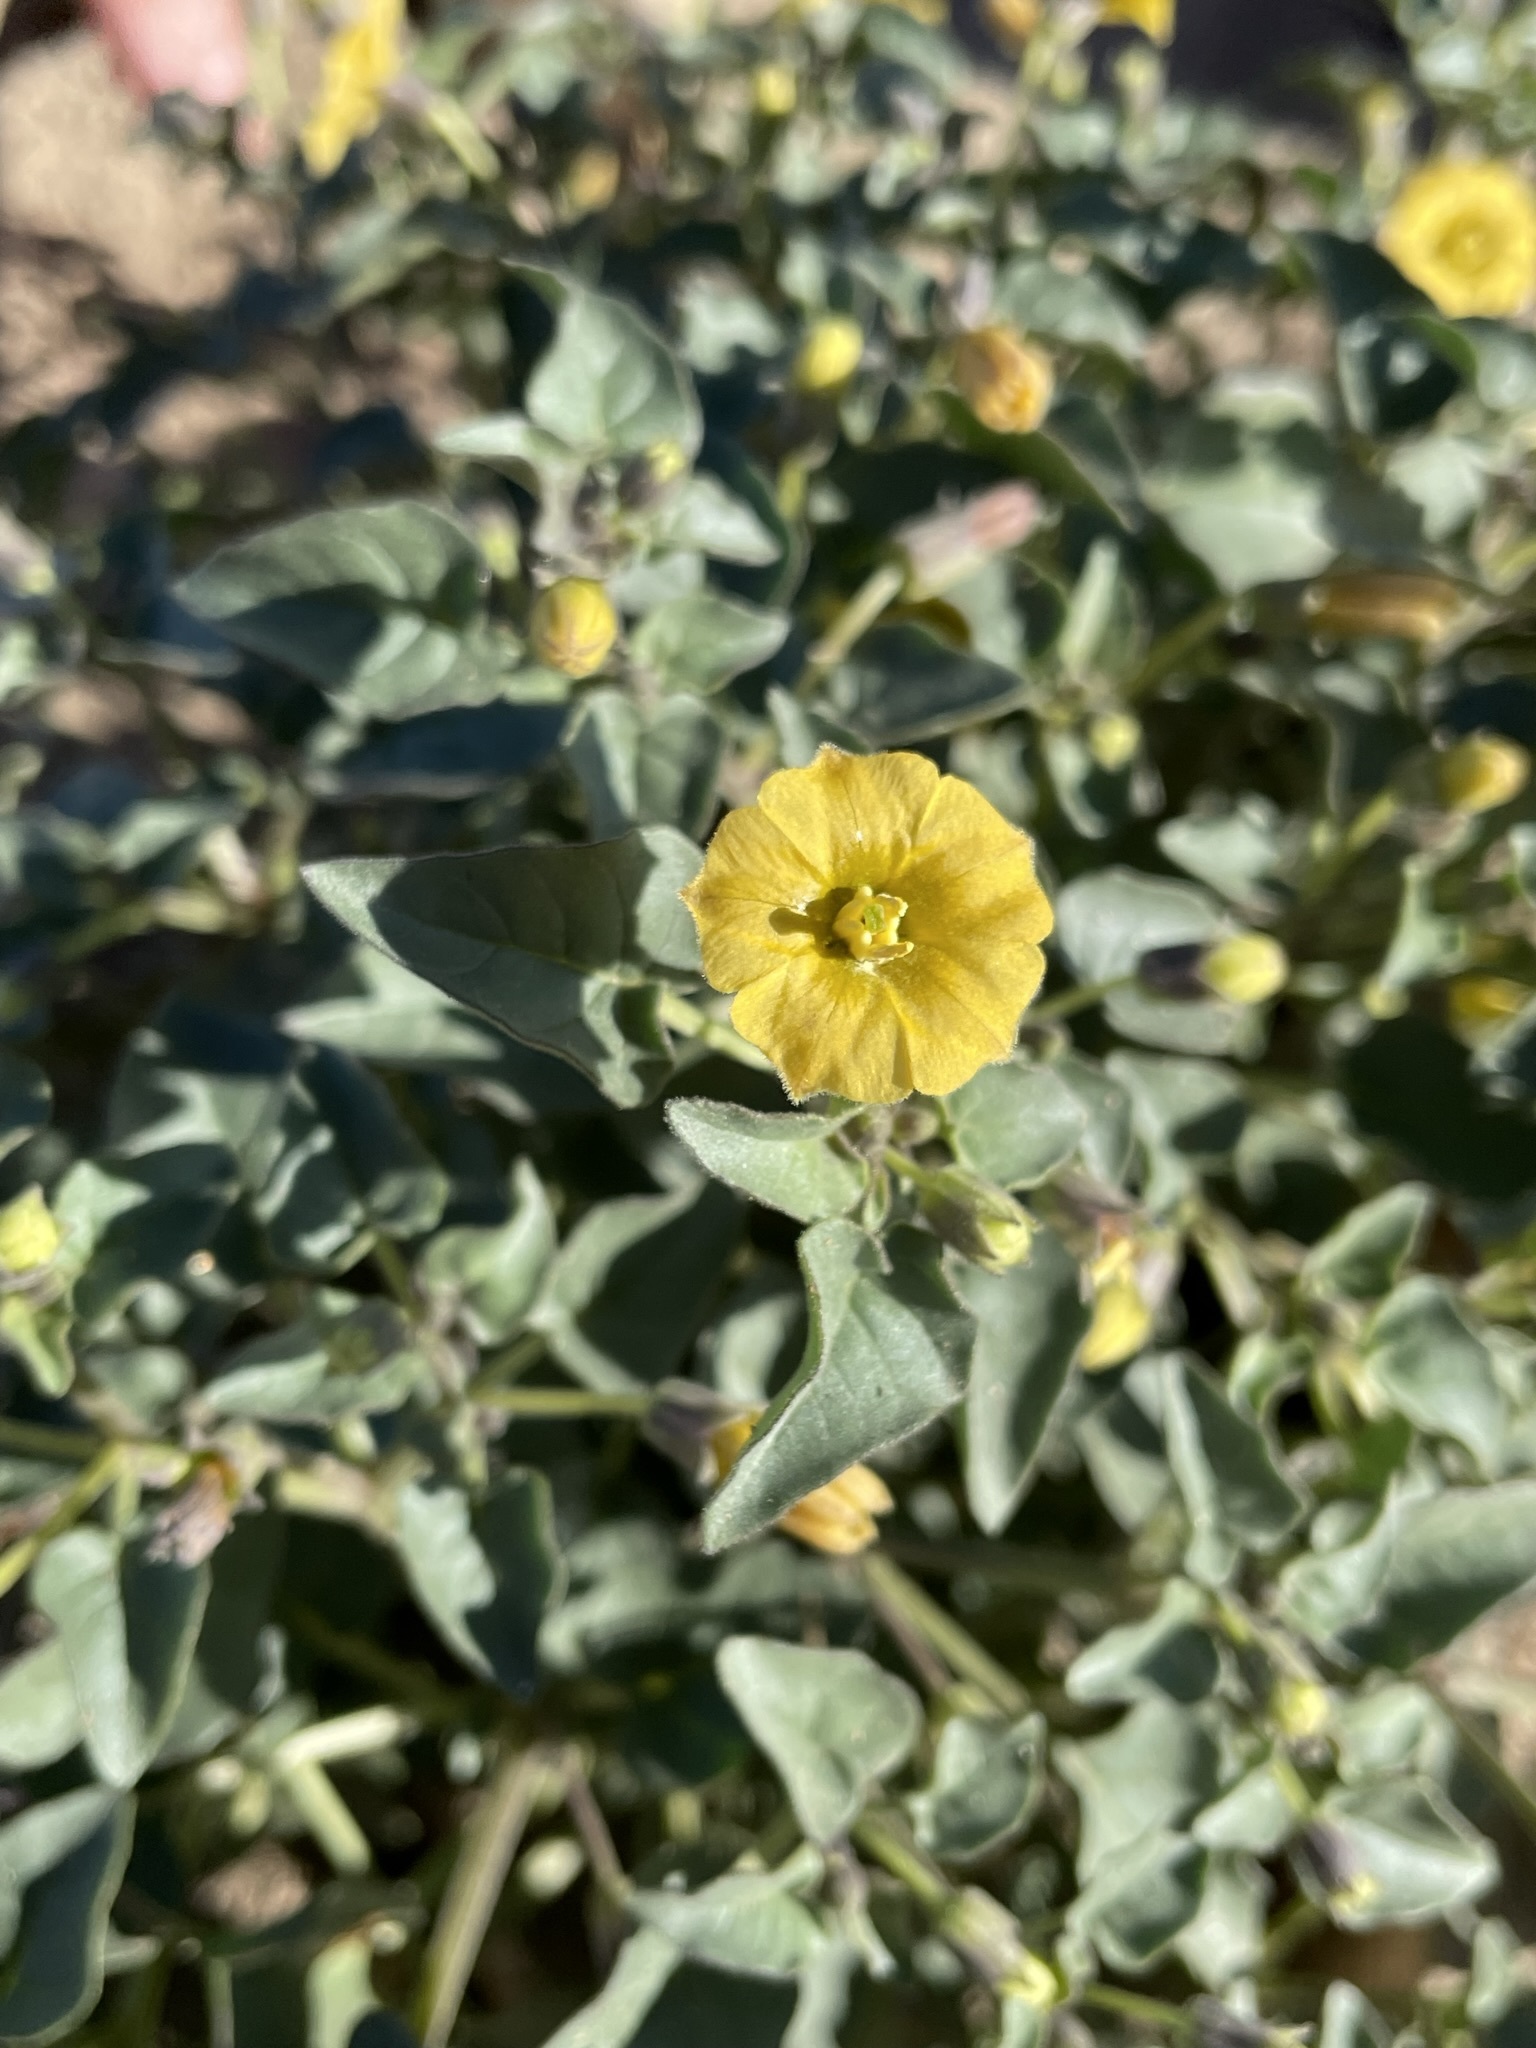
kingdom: Plantae
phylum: Tracheophyta
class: Magnoliopsida
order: Solanales
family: Solanaceae
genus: Physalis
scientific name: Physalis crassifolia
